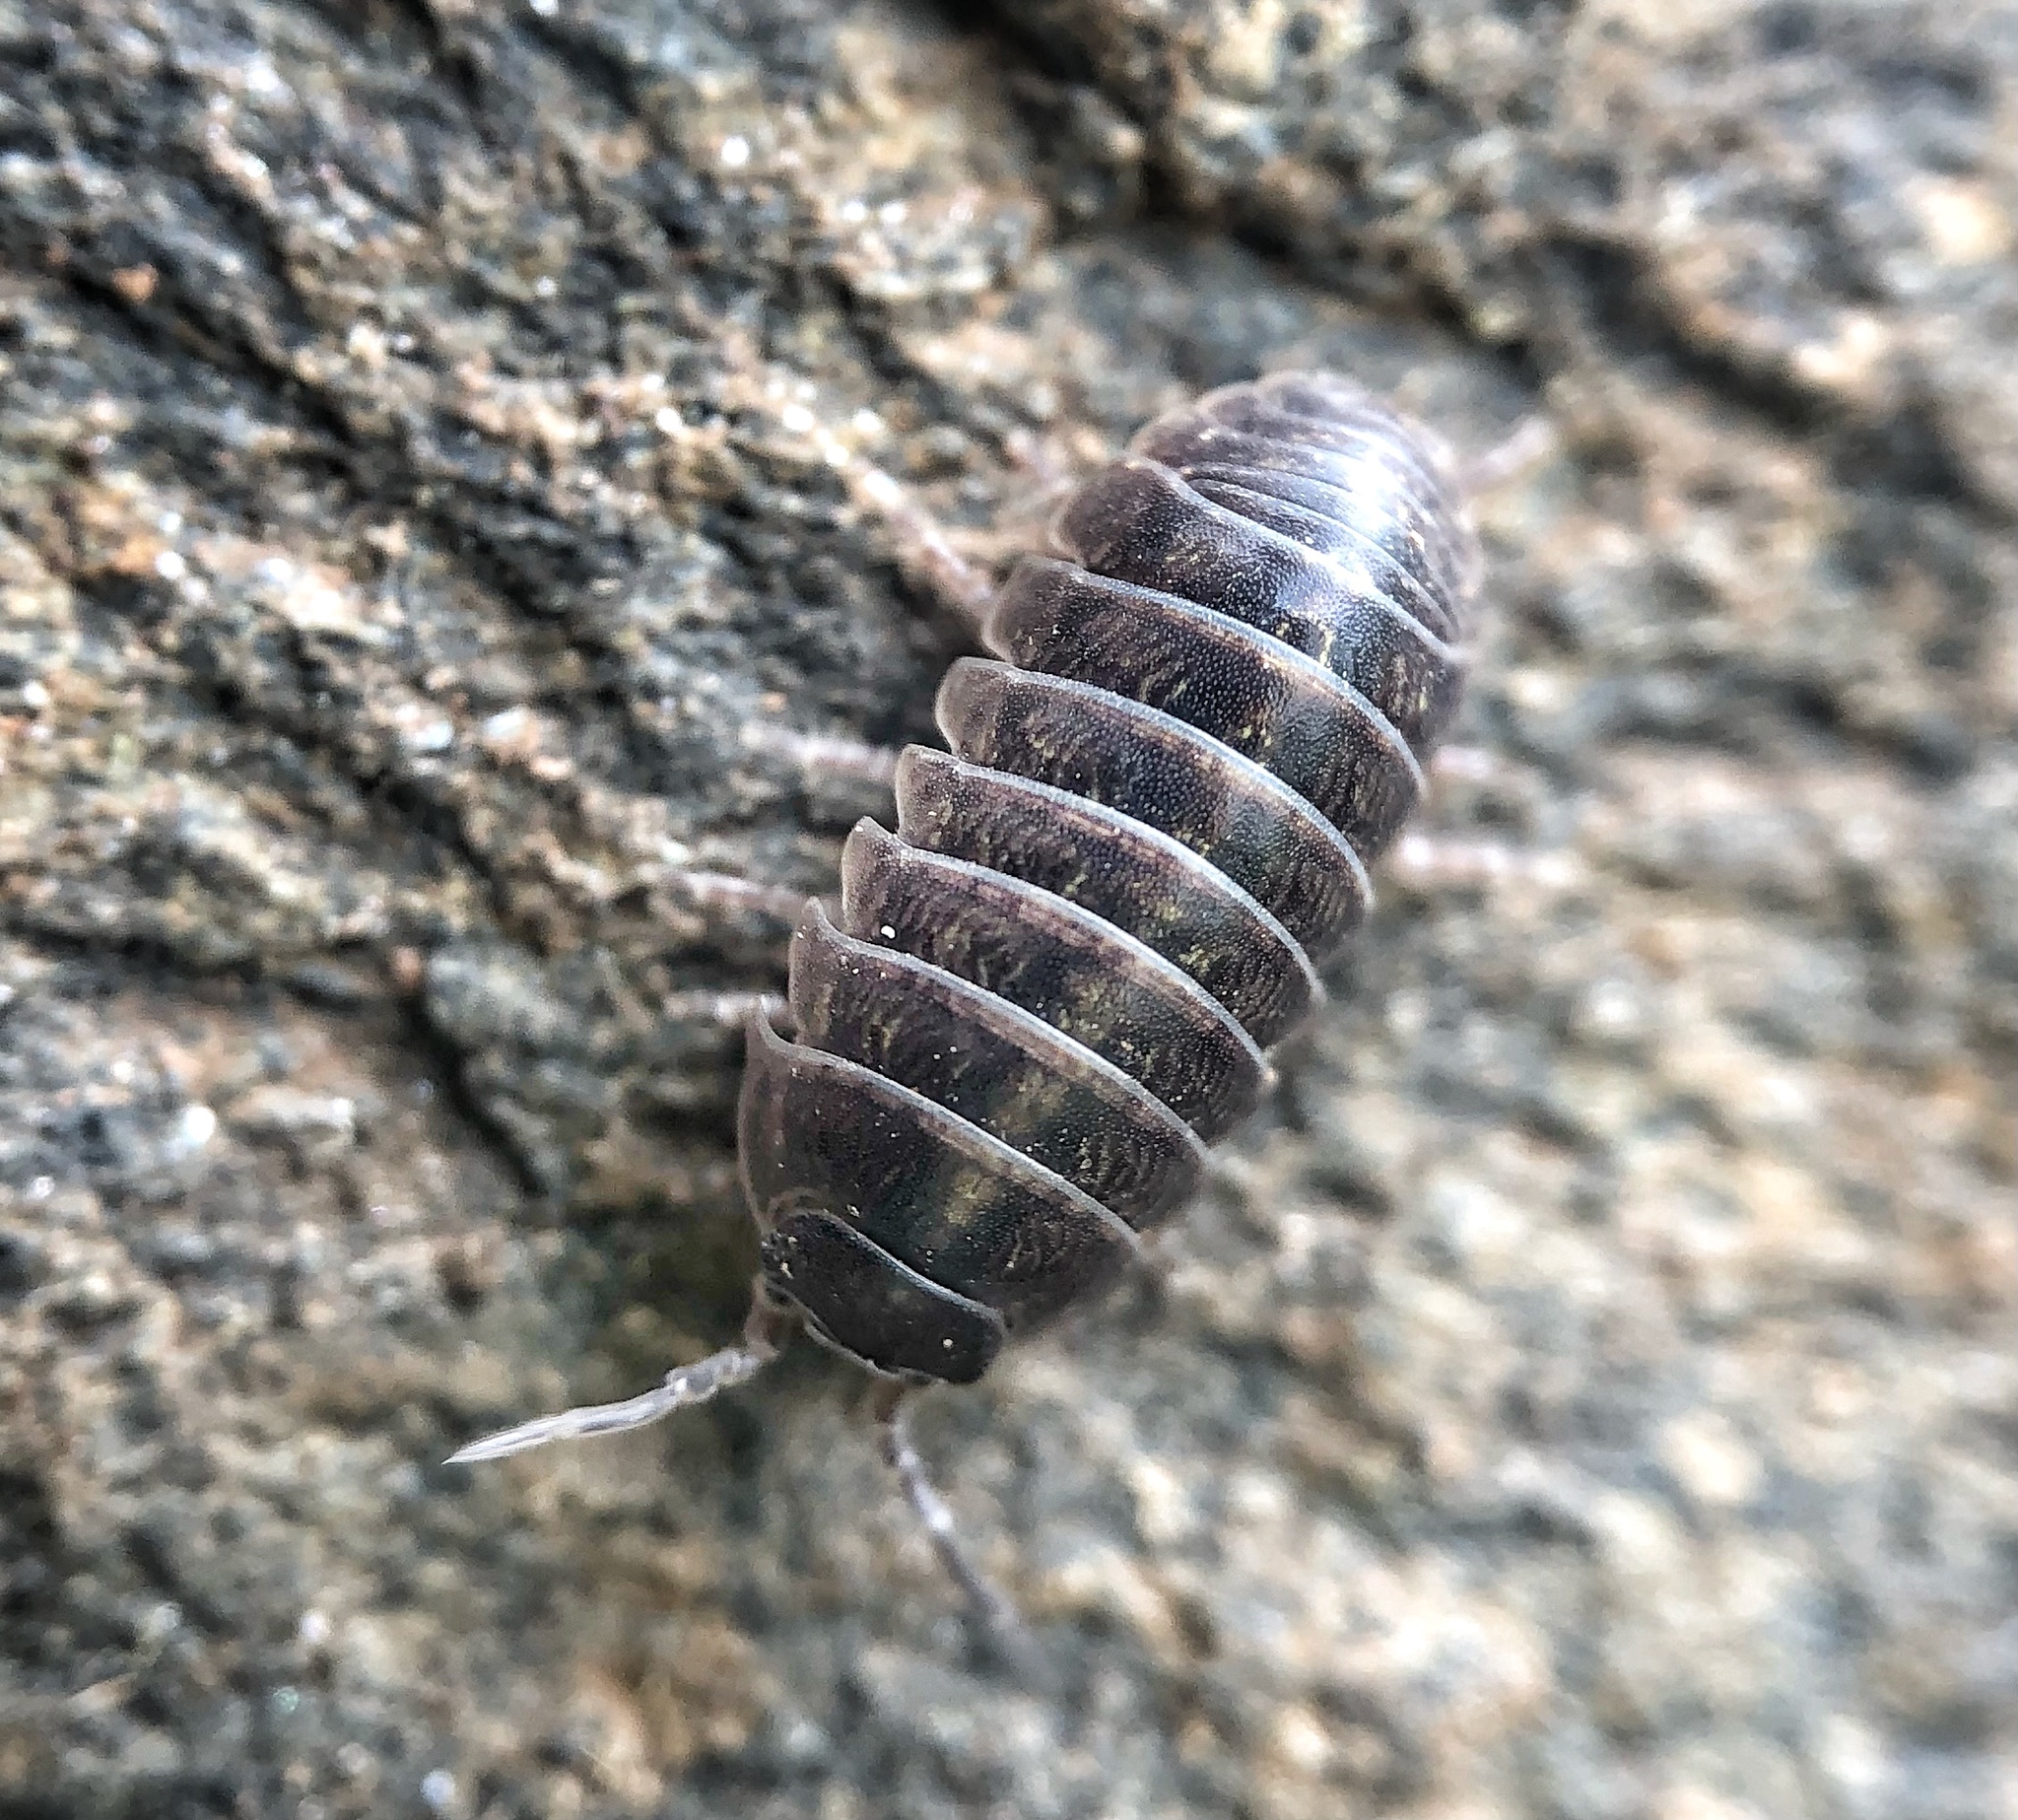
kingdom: Animalia
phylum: Arthropoda
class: Malacostraca
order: Isopoda
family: Armadillidiidae
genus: Armadillidium
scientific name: Armadillidium vulgare
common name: Common pill woodlouse
